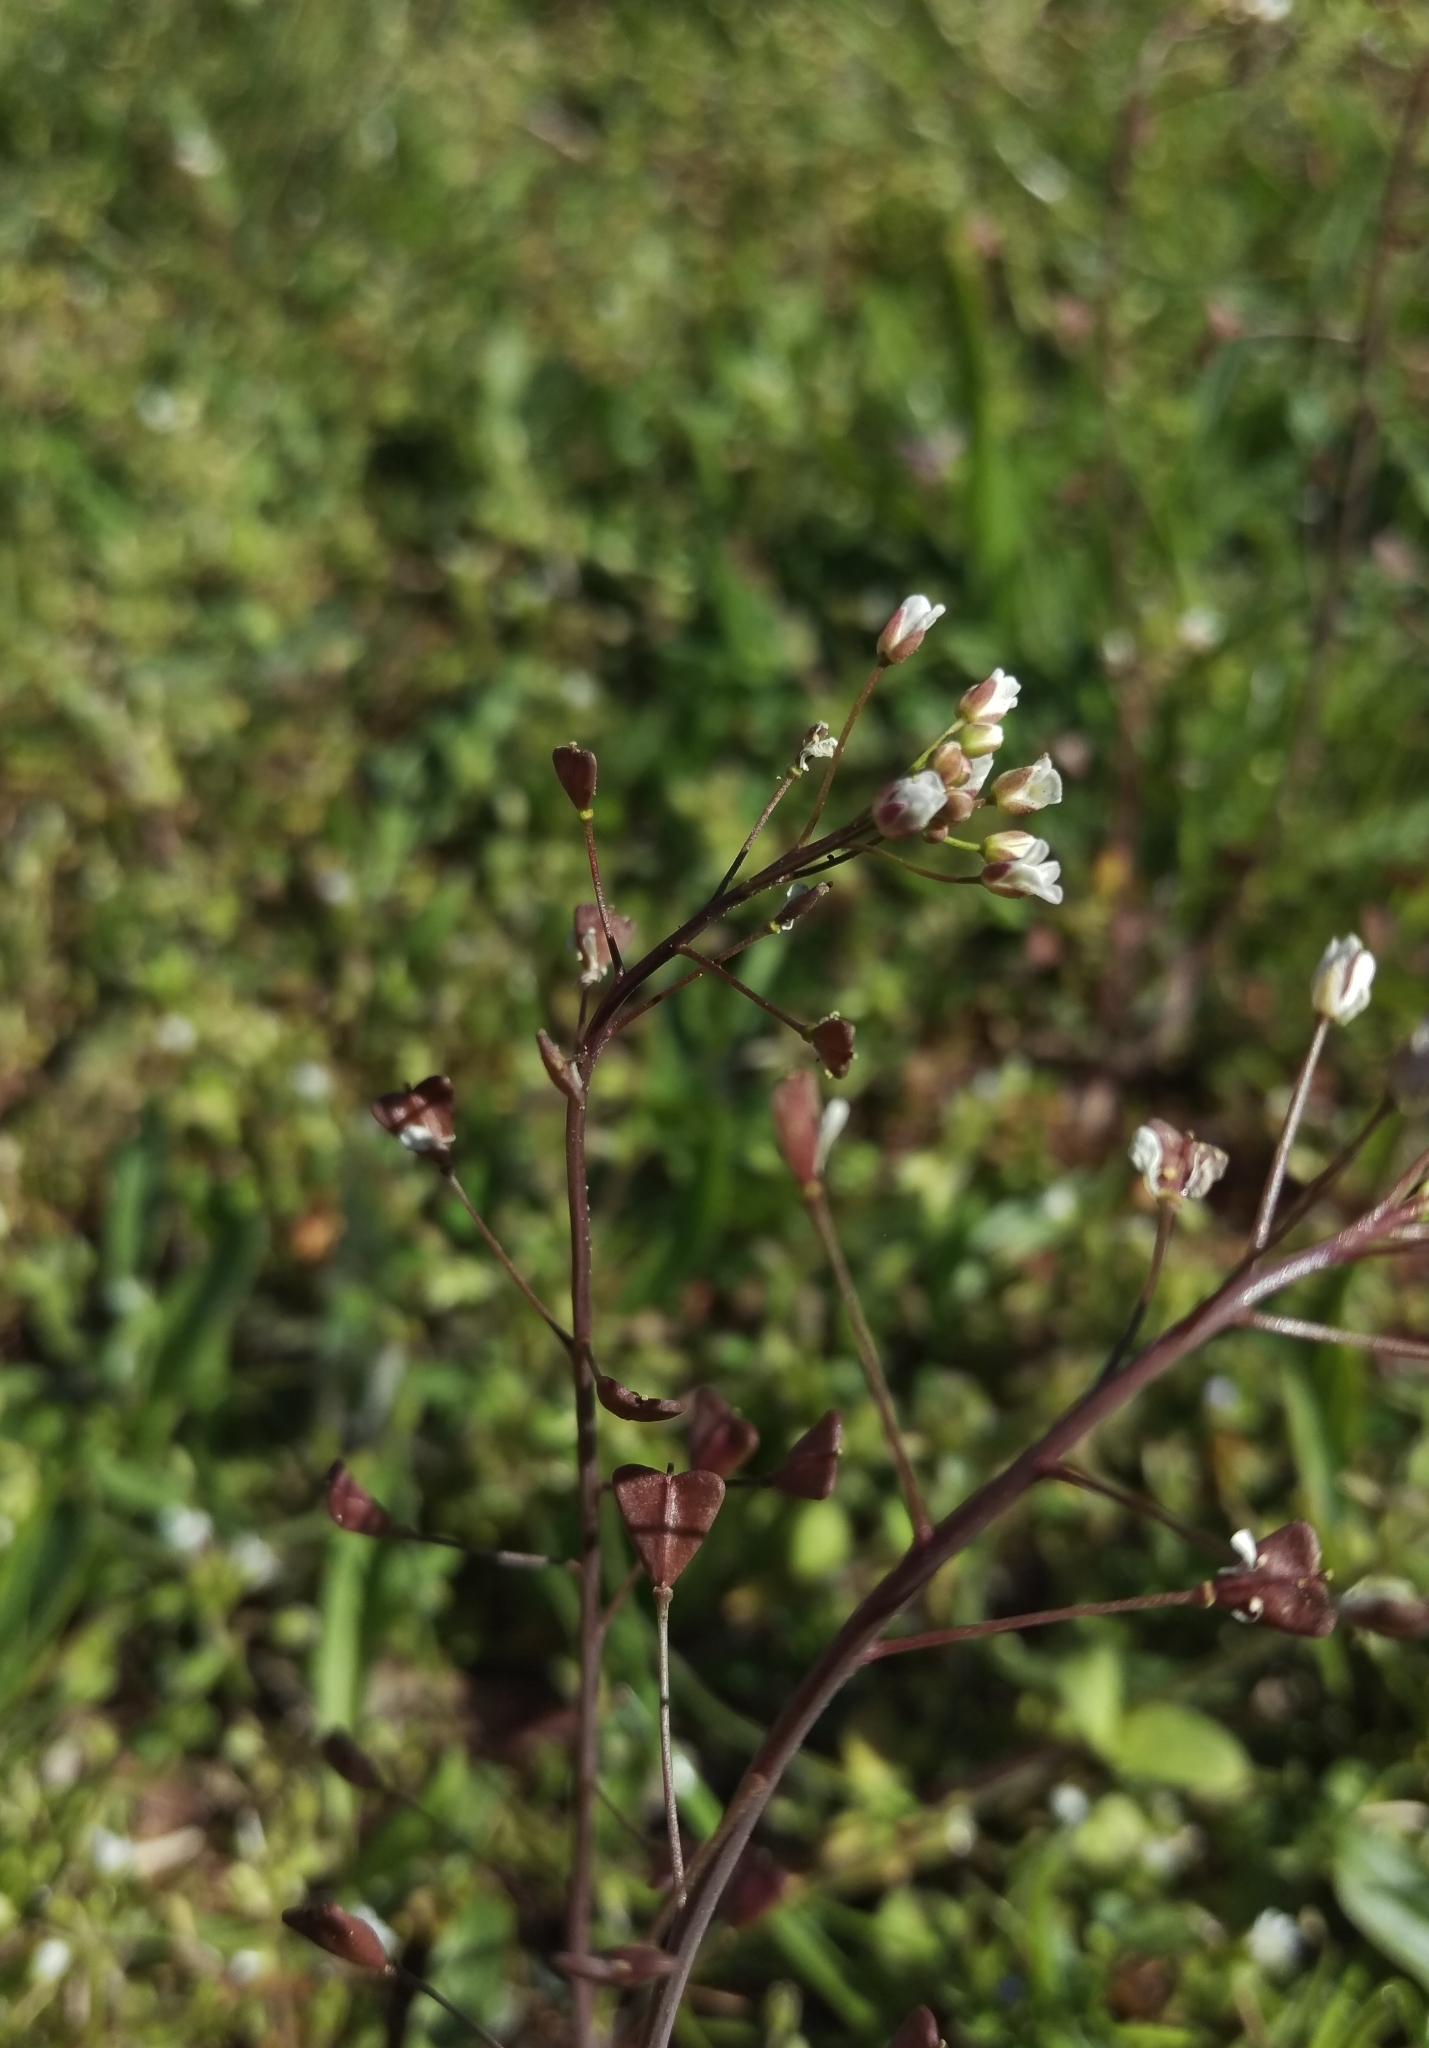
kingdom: Plantae
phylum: Tracheophyta
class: Magnoliopsida
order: Brassicales
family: Brassicaceae
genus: Capsella
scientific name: Capsella bursa-pastoris
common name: Shepherd's purse
